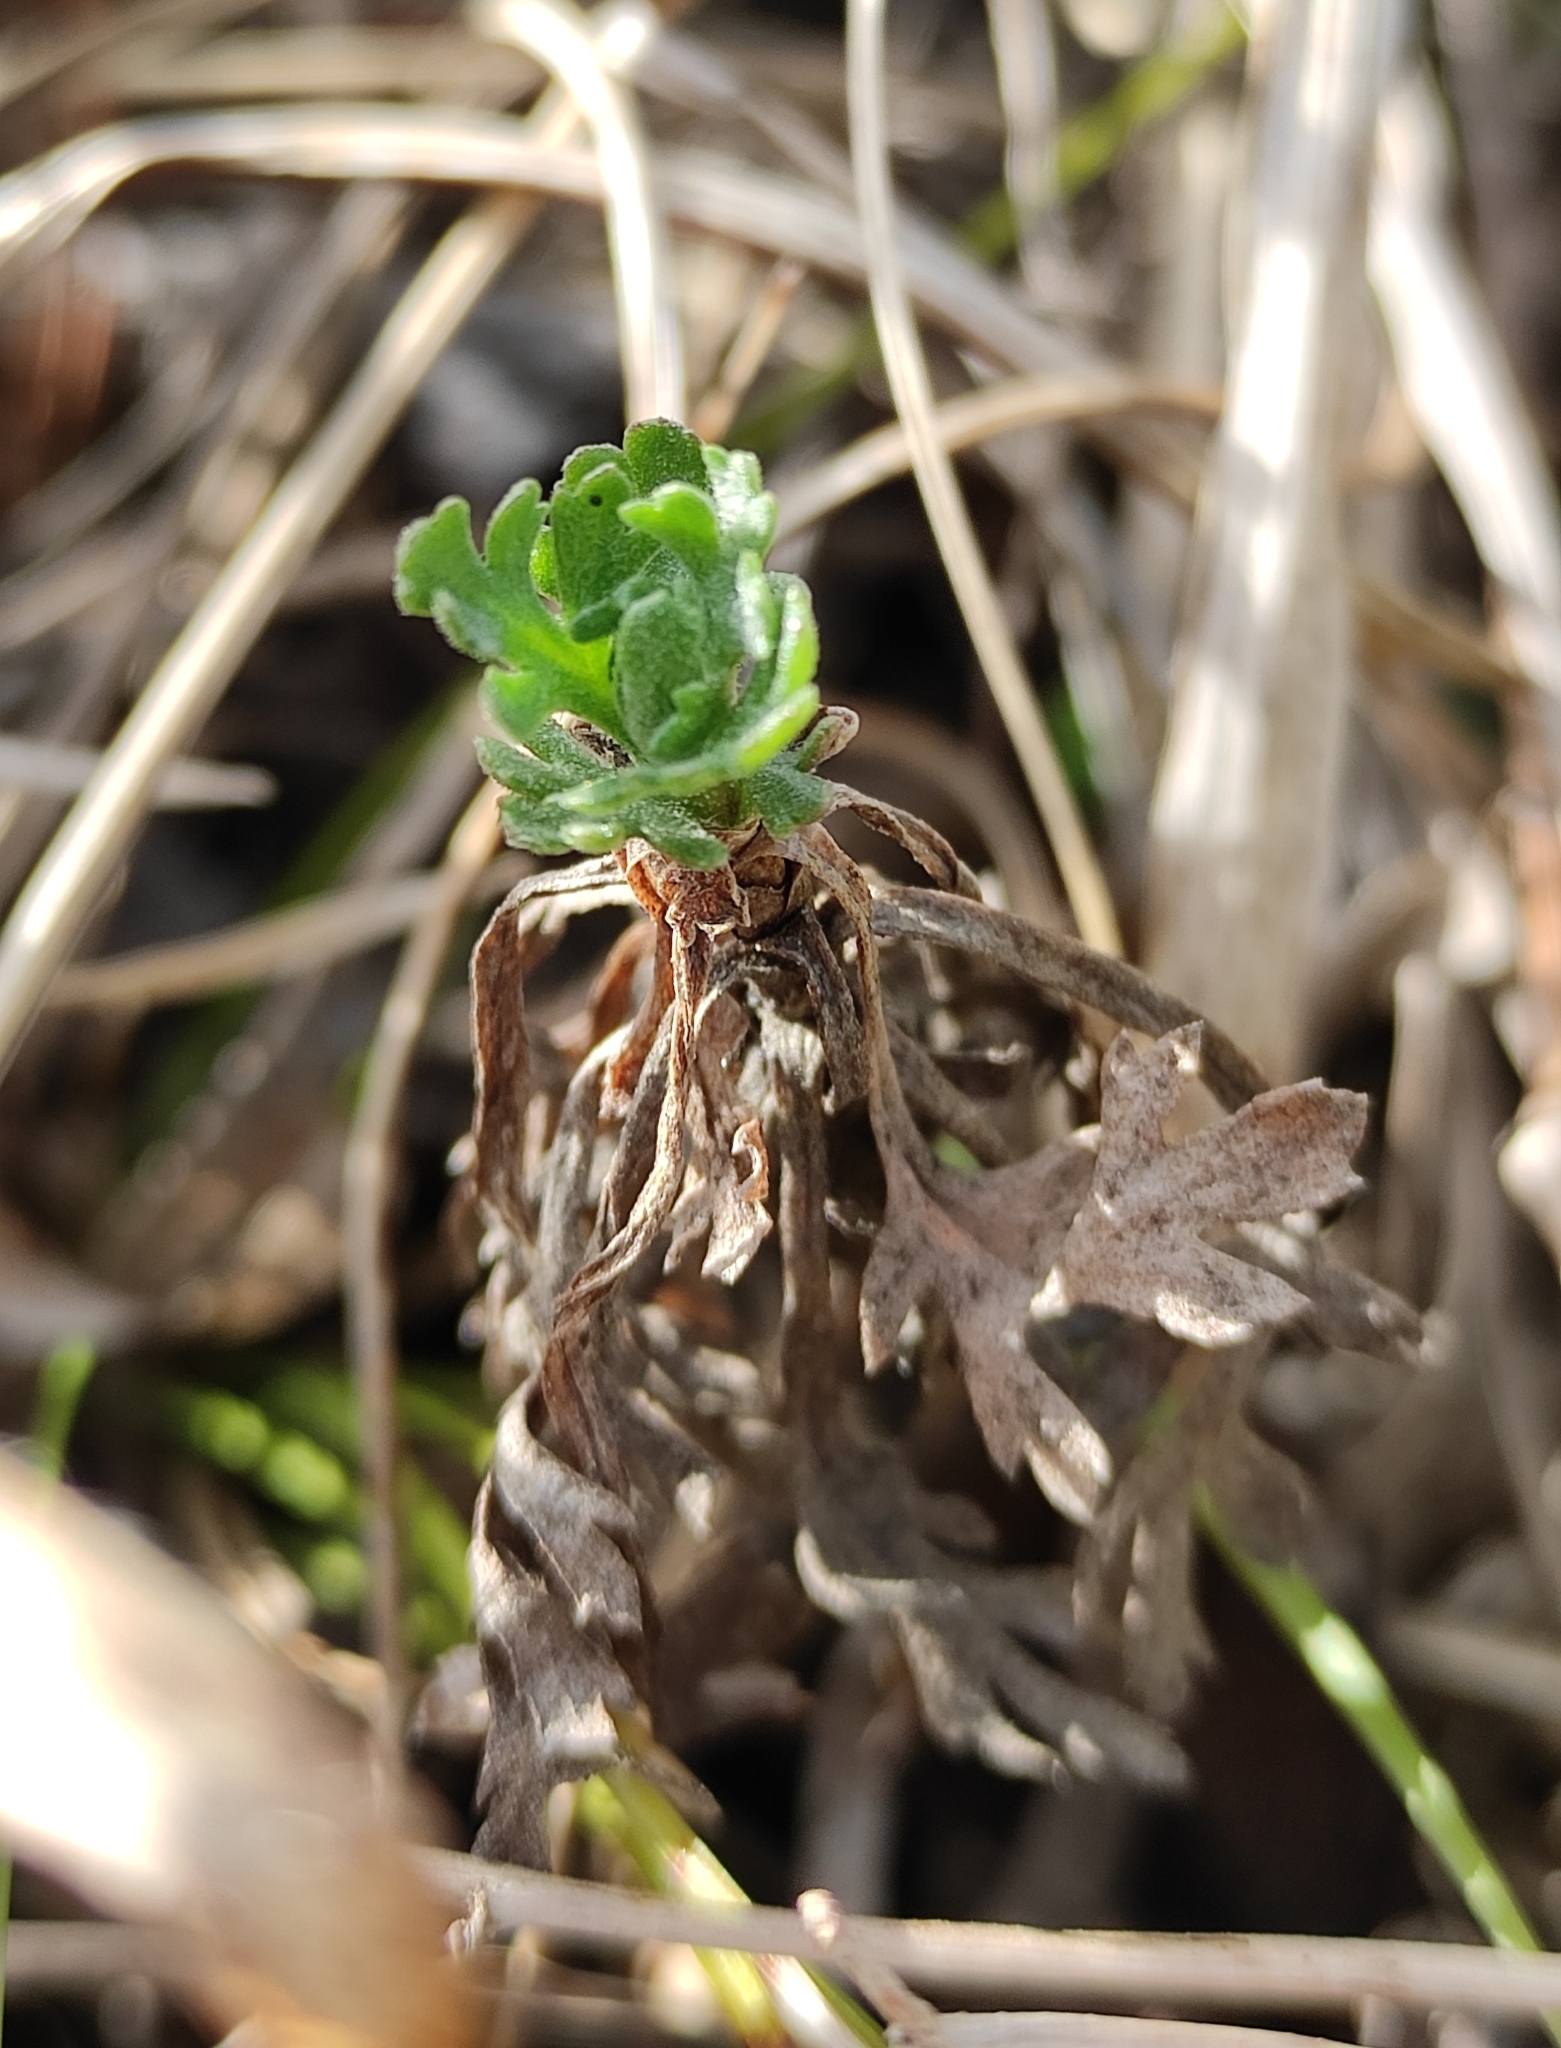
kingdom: Plantae
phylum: Tracheophyta
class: Magnoliopsida
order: Asterales
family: Asteraceae
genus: Chrysanthemum
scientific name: Chrysanthemum zawadzkii
